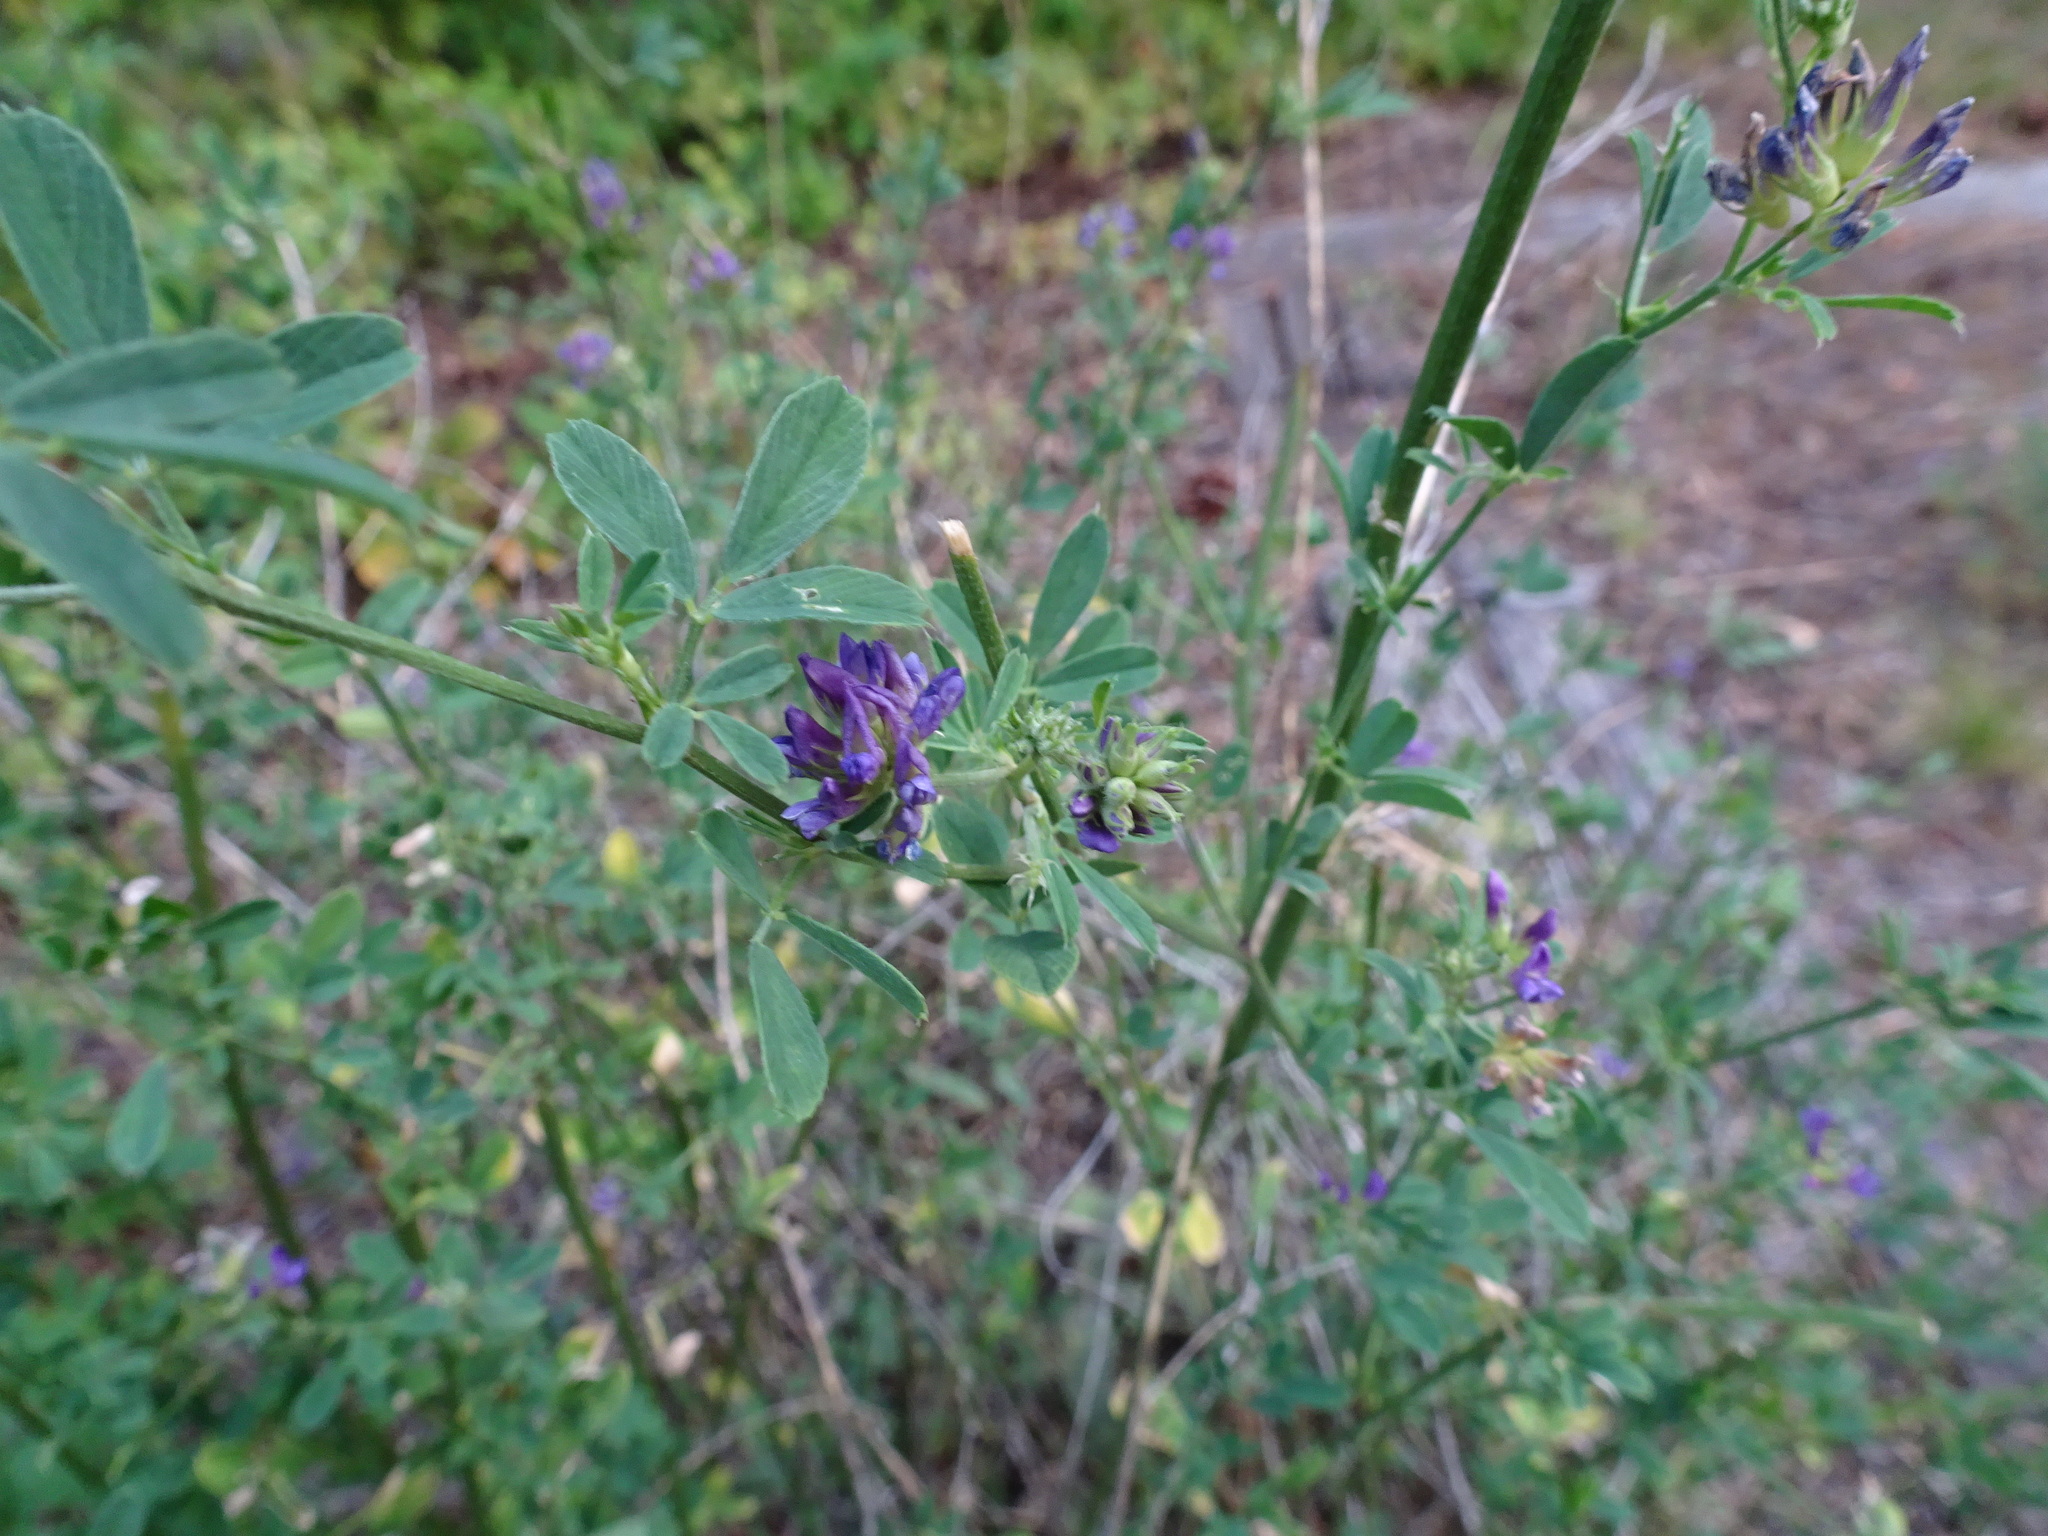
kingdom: Plantae
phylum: Tracheophyta
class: Magnoliopsida
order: Fabales
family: Fabaceae
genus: Medicago
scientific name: Medicago sativa
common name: Alfalfa
